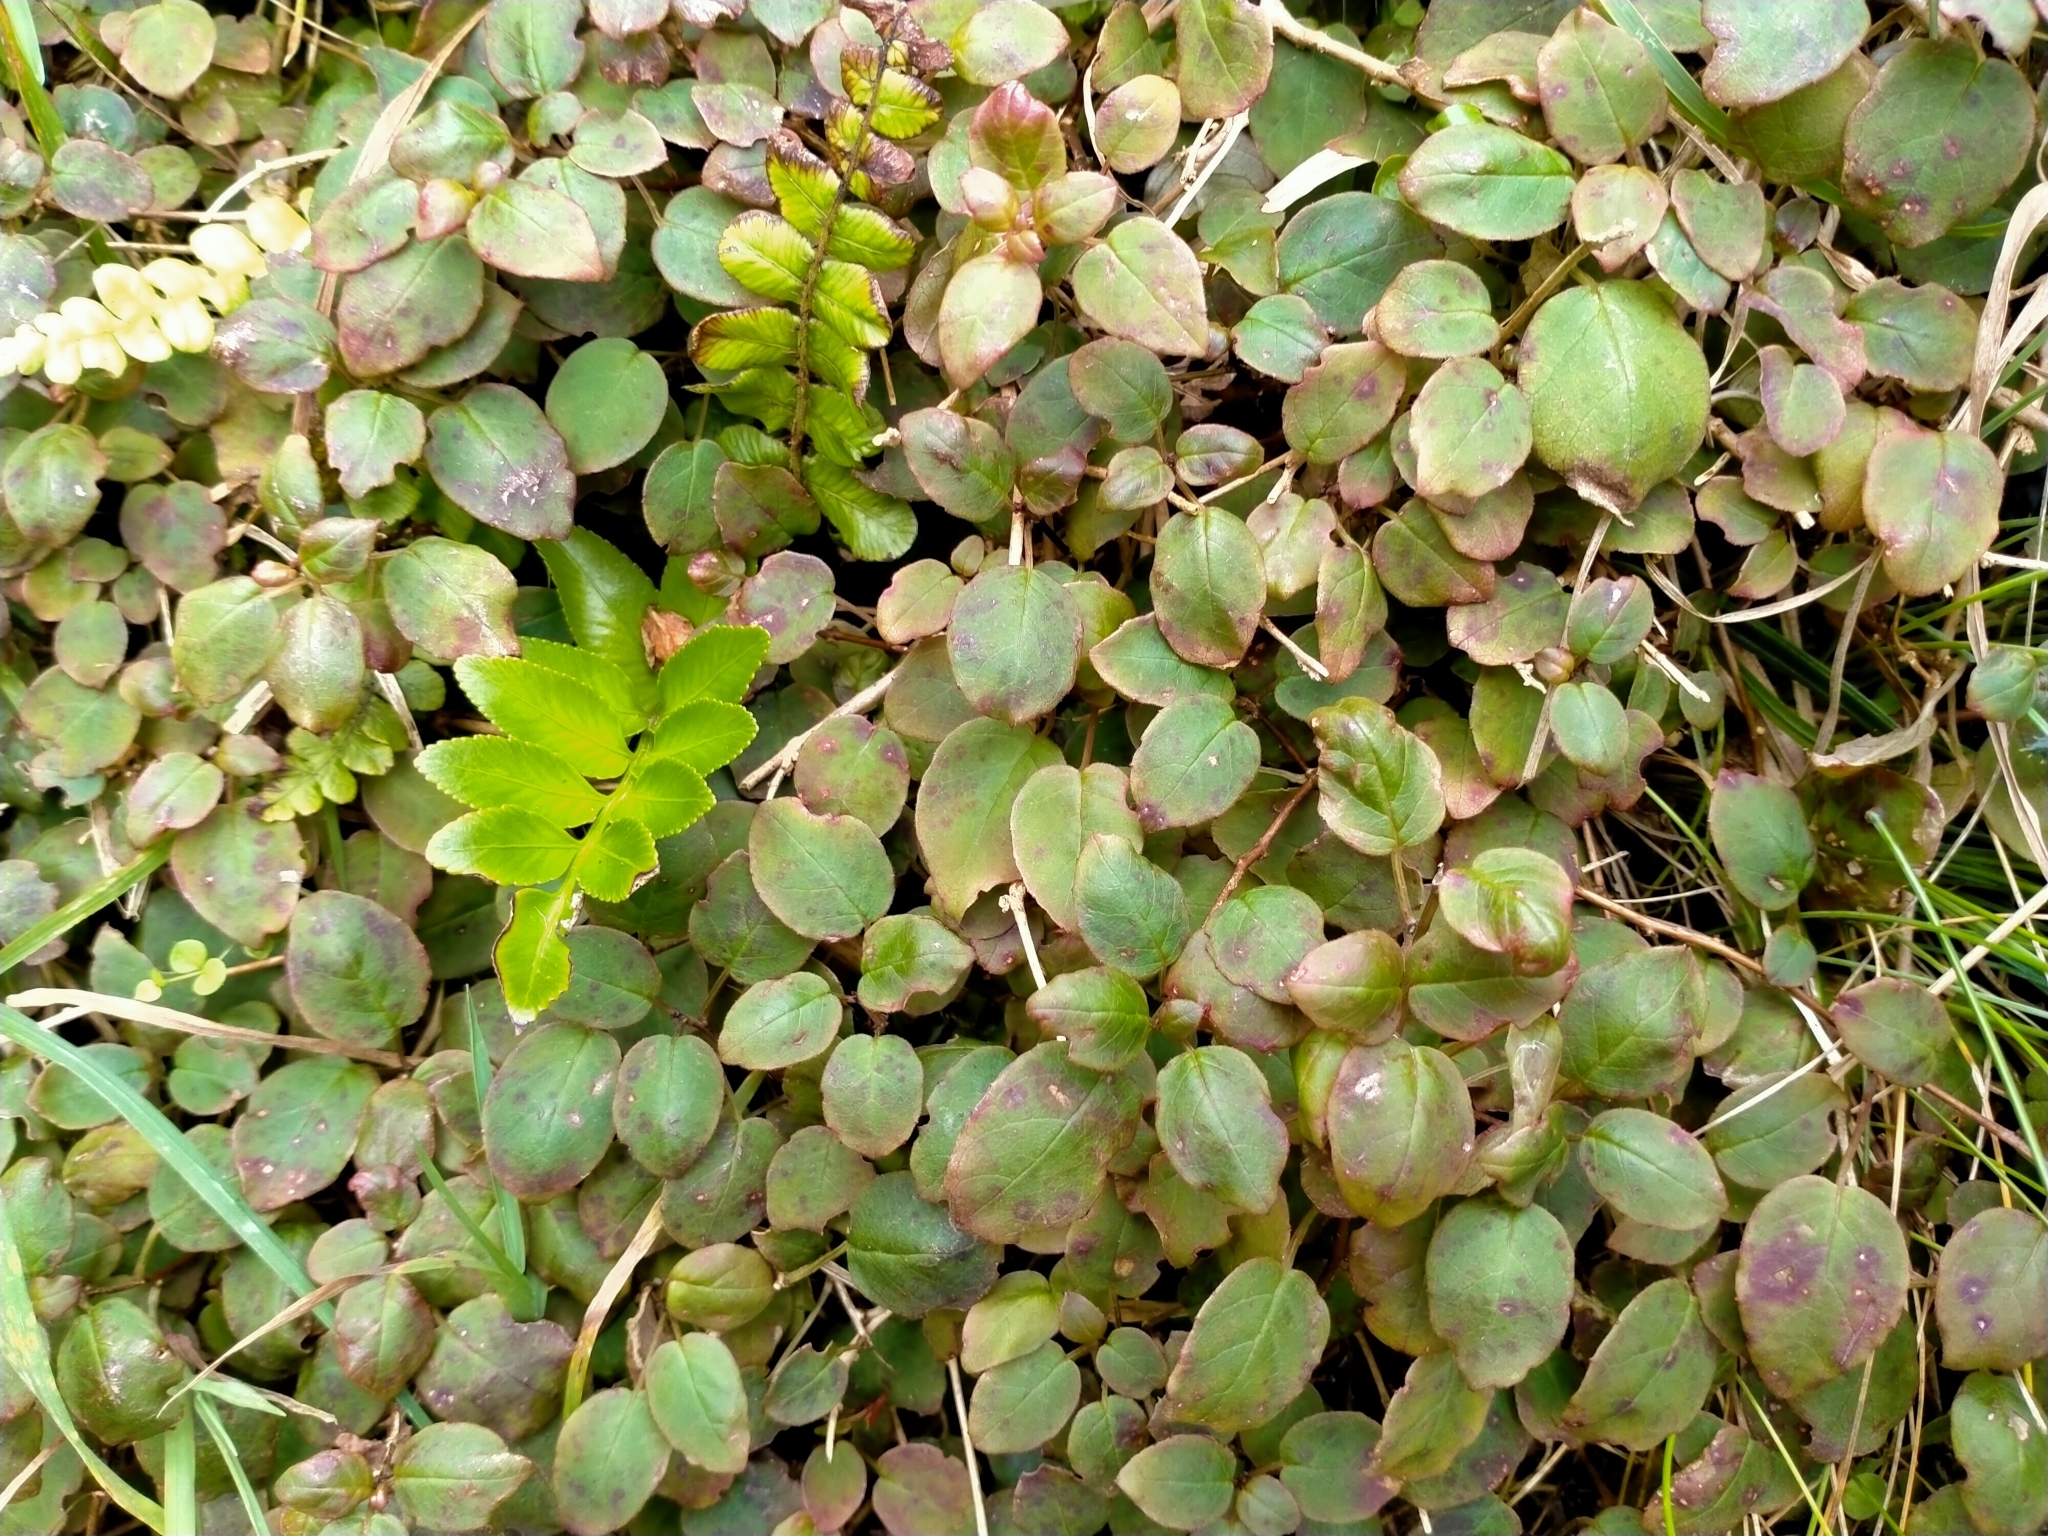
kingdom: Plantae
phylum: Tracheophyta
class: Magnoliopsida
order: Myrtales
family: Onagraceae
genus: Fuchsia
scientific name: Fuchsia perscandens
